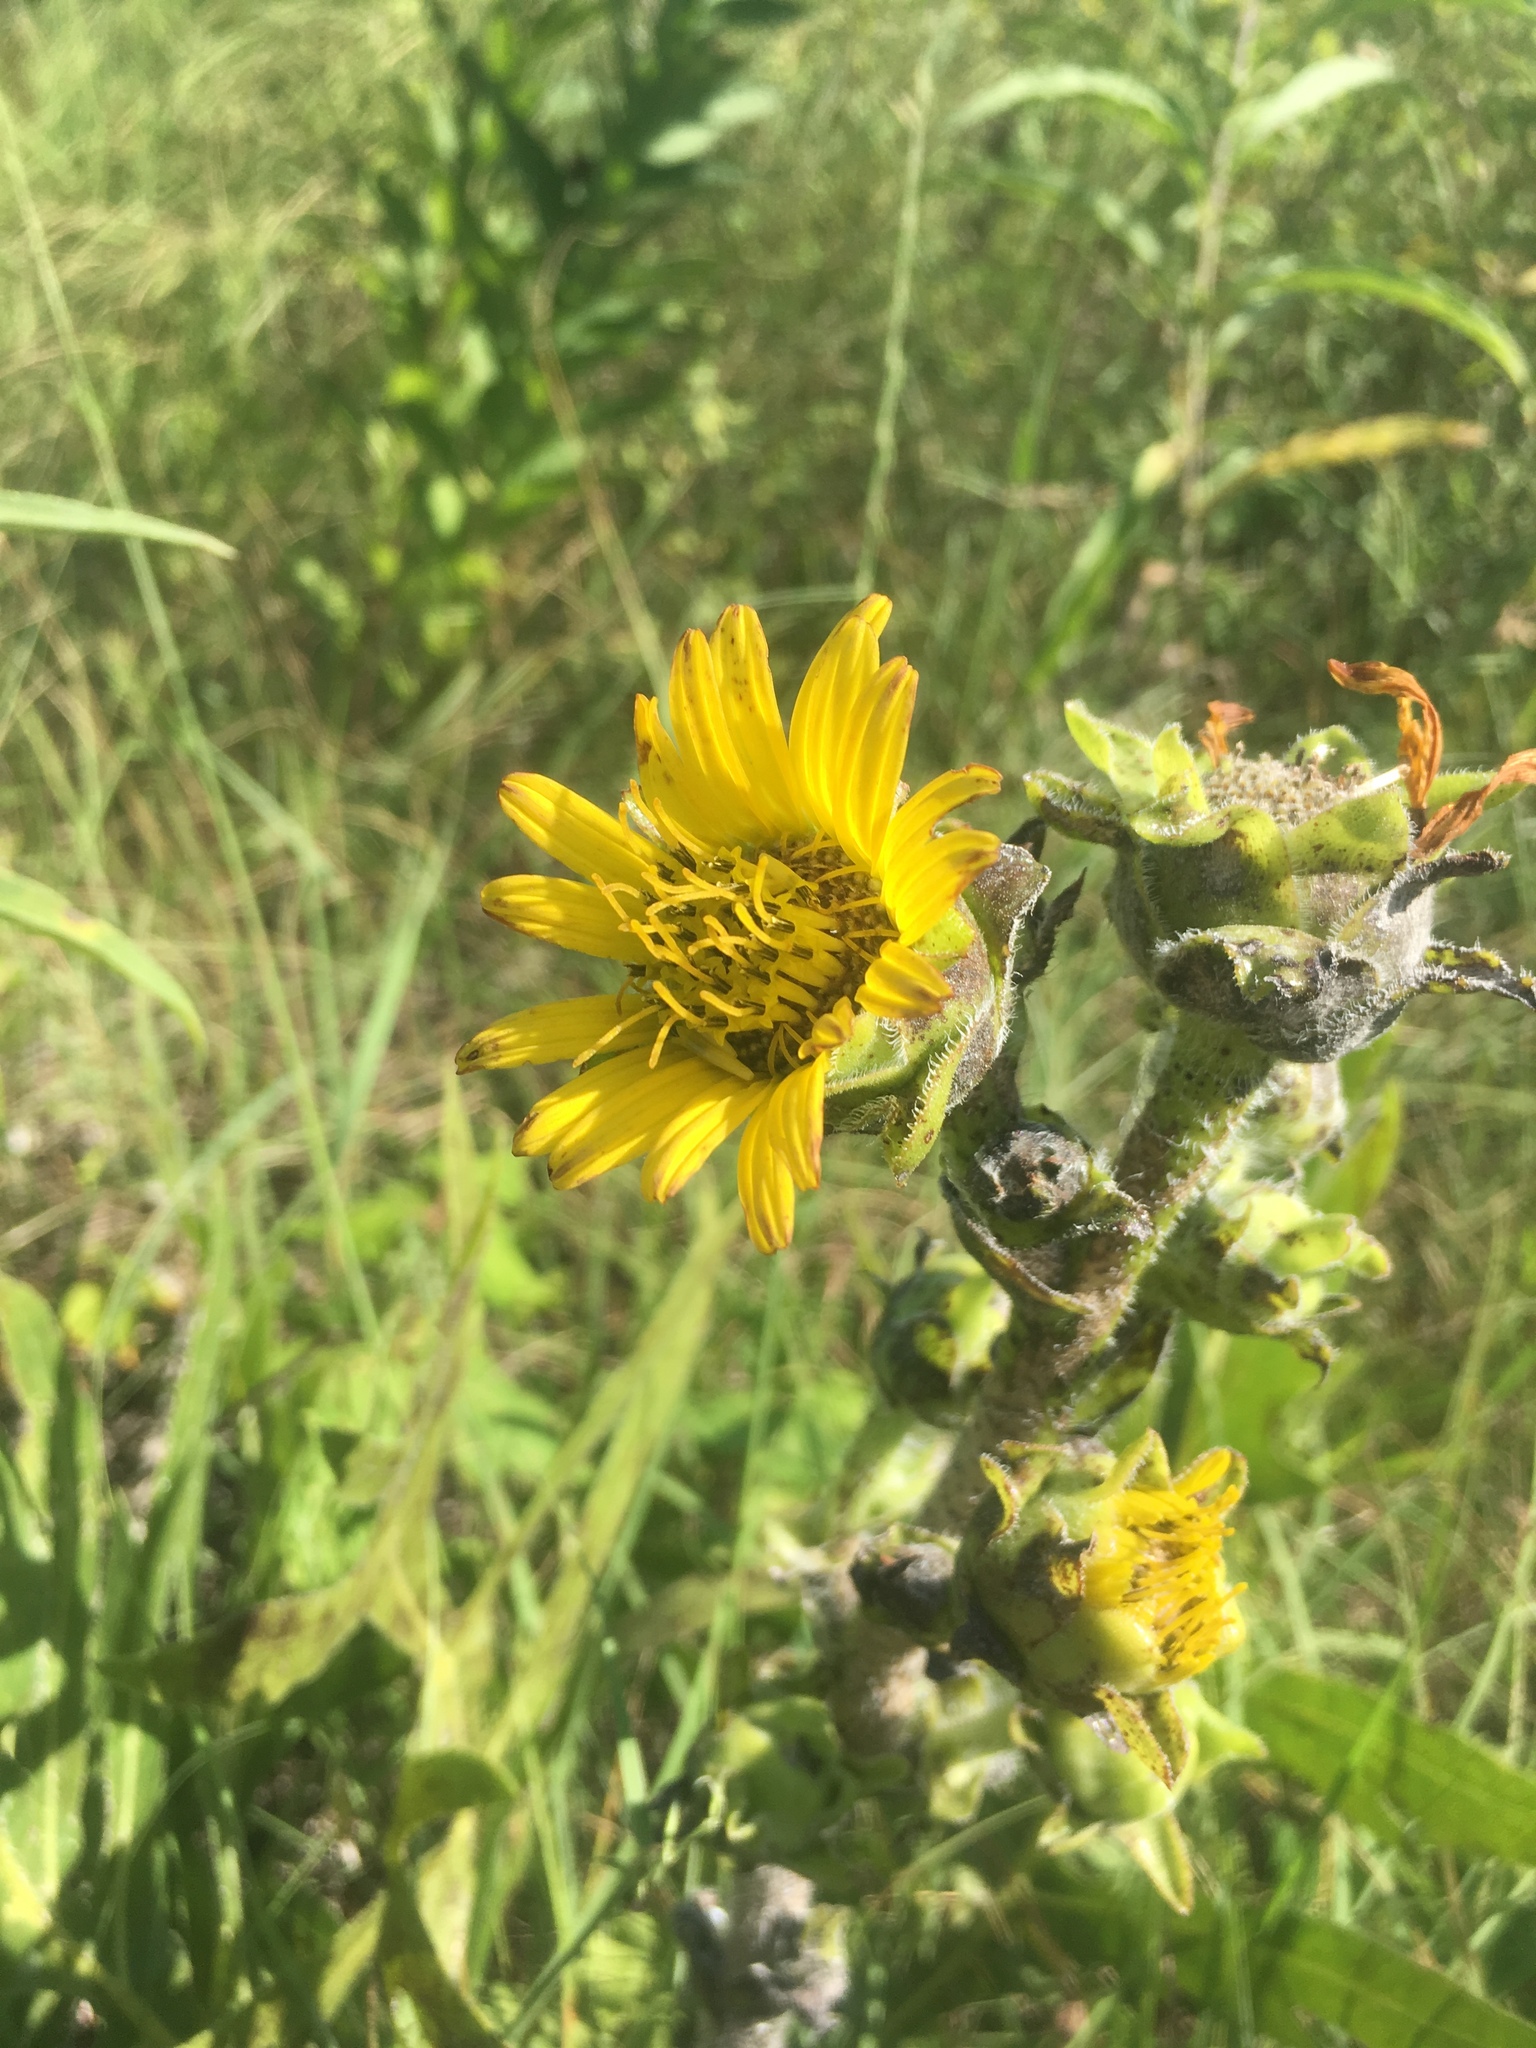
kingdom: Plantae
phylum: Tracheophyta
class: Magnoliopsida
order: Asterales
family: Asteraceae
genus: Silphium
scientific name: Silphium laciniatum
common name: Polarplant
